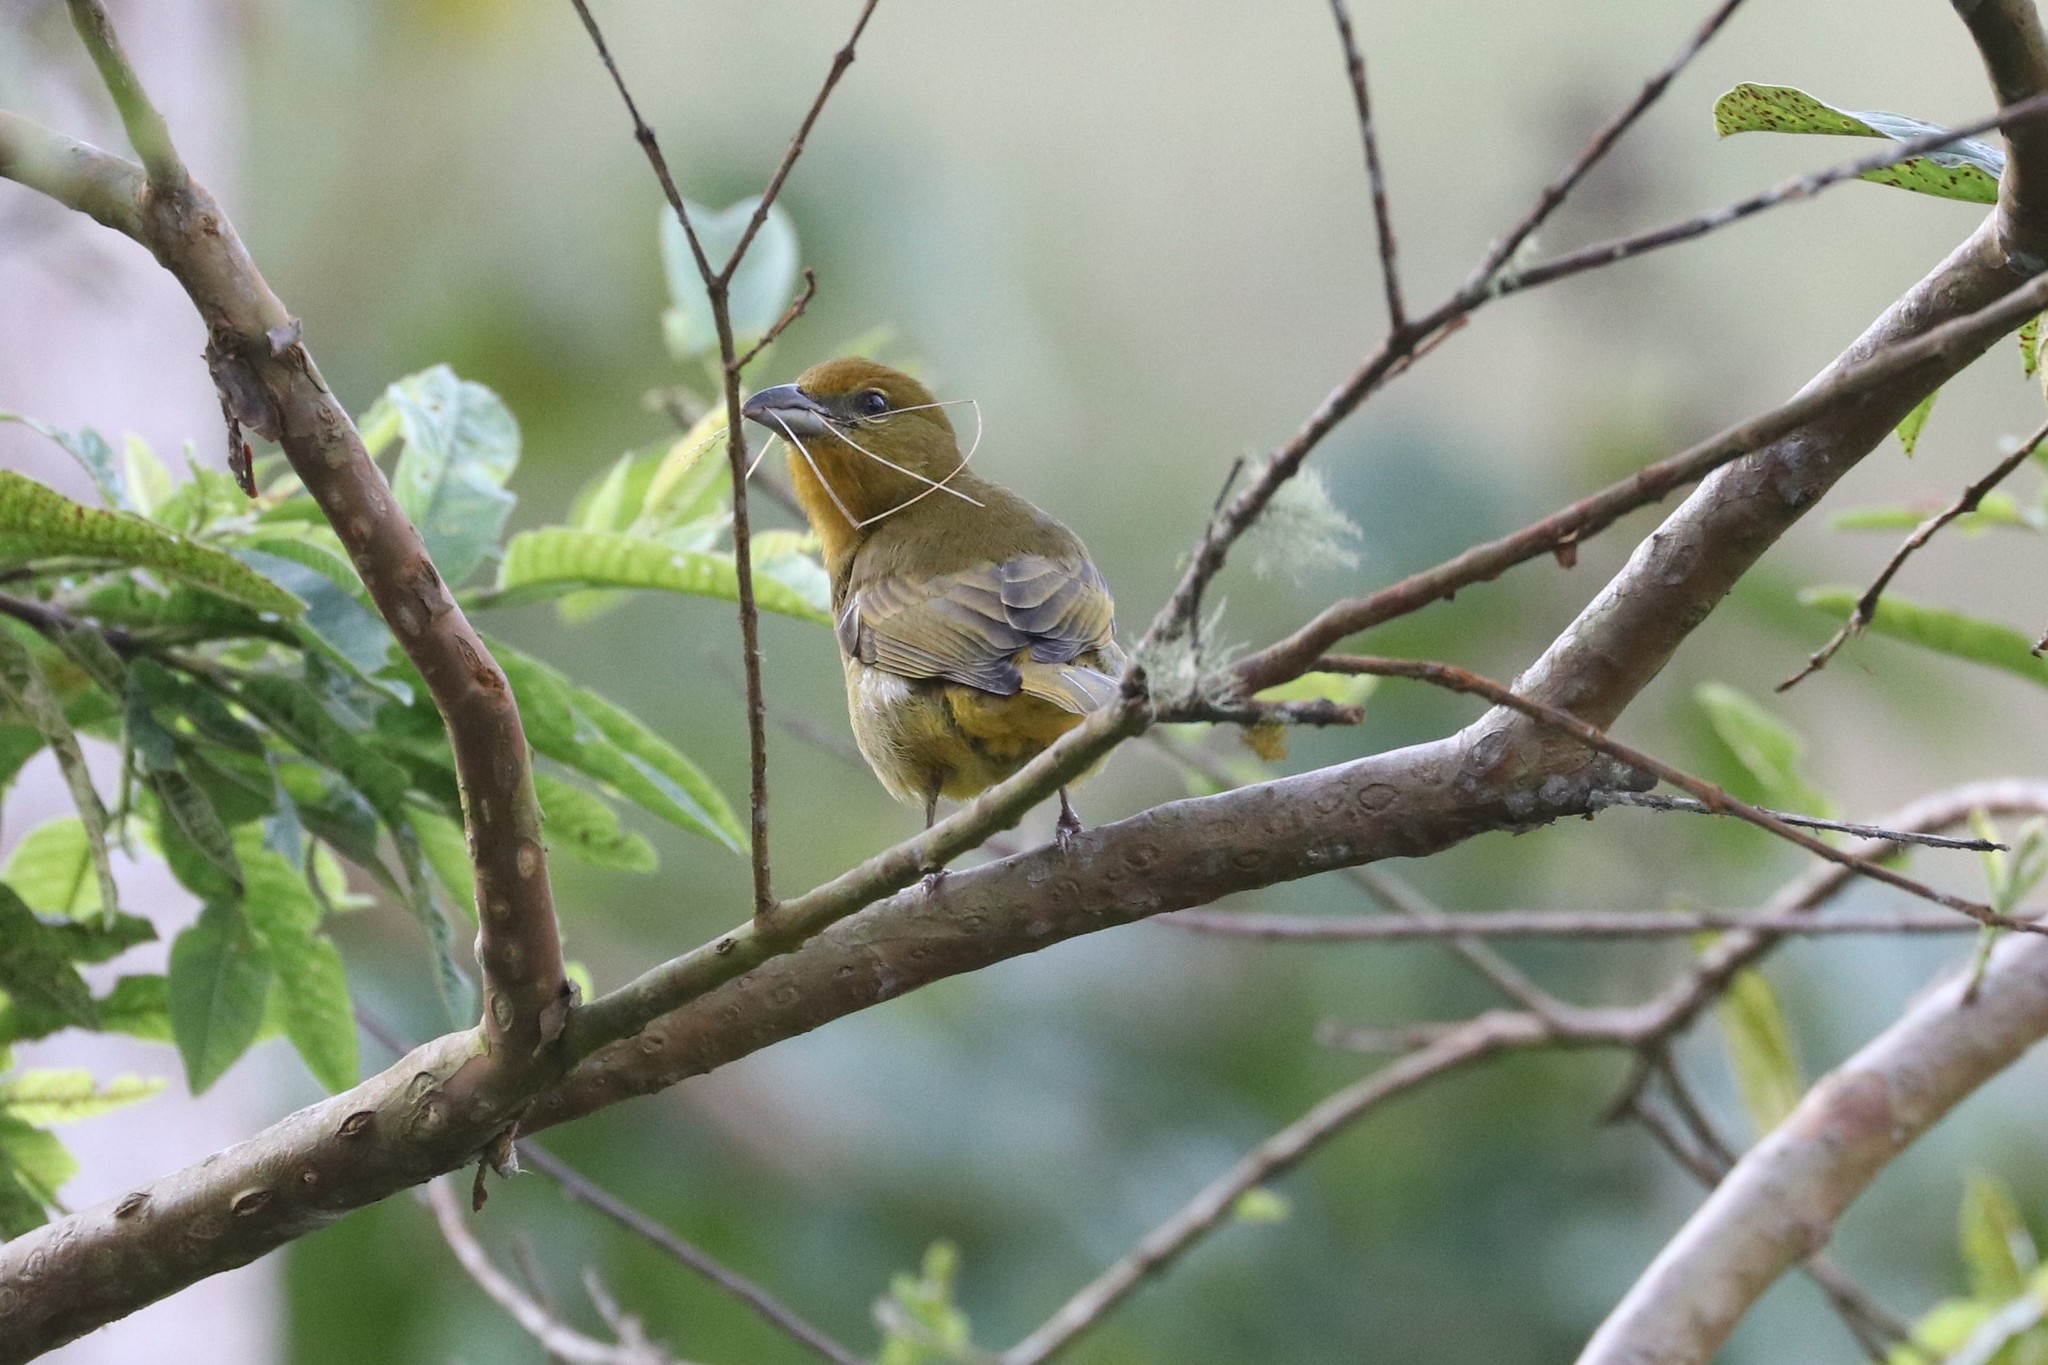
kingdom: Animalia
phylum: Chordata
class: Aves
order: Passeriformes
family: Cardinalidae
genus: Piranga
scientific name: Piranga flava
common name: Red tanager
